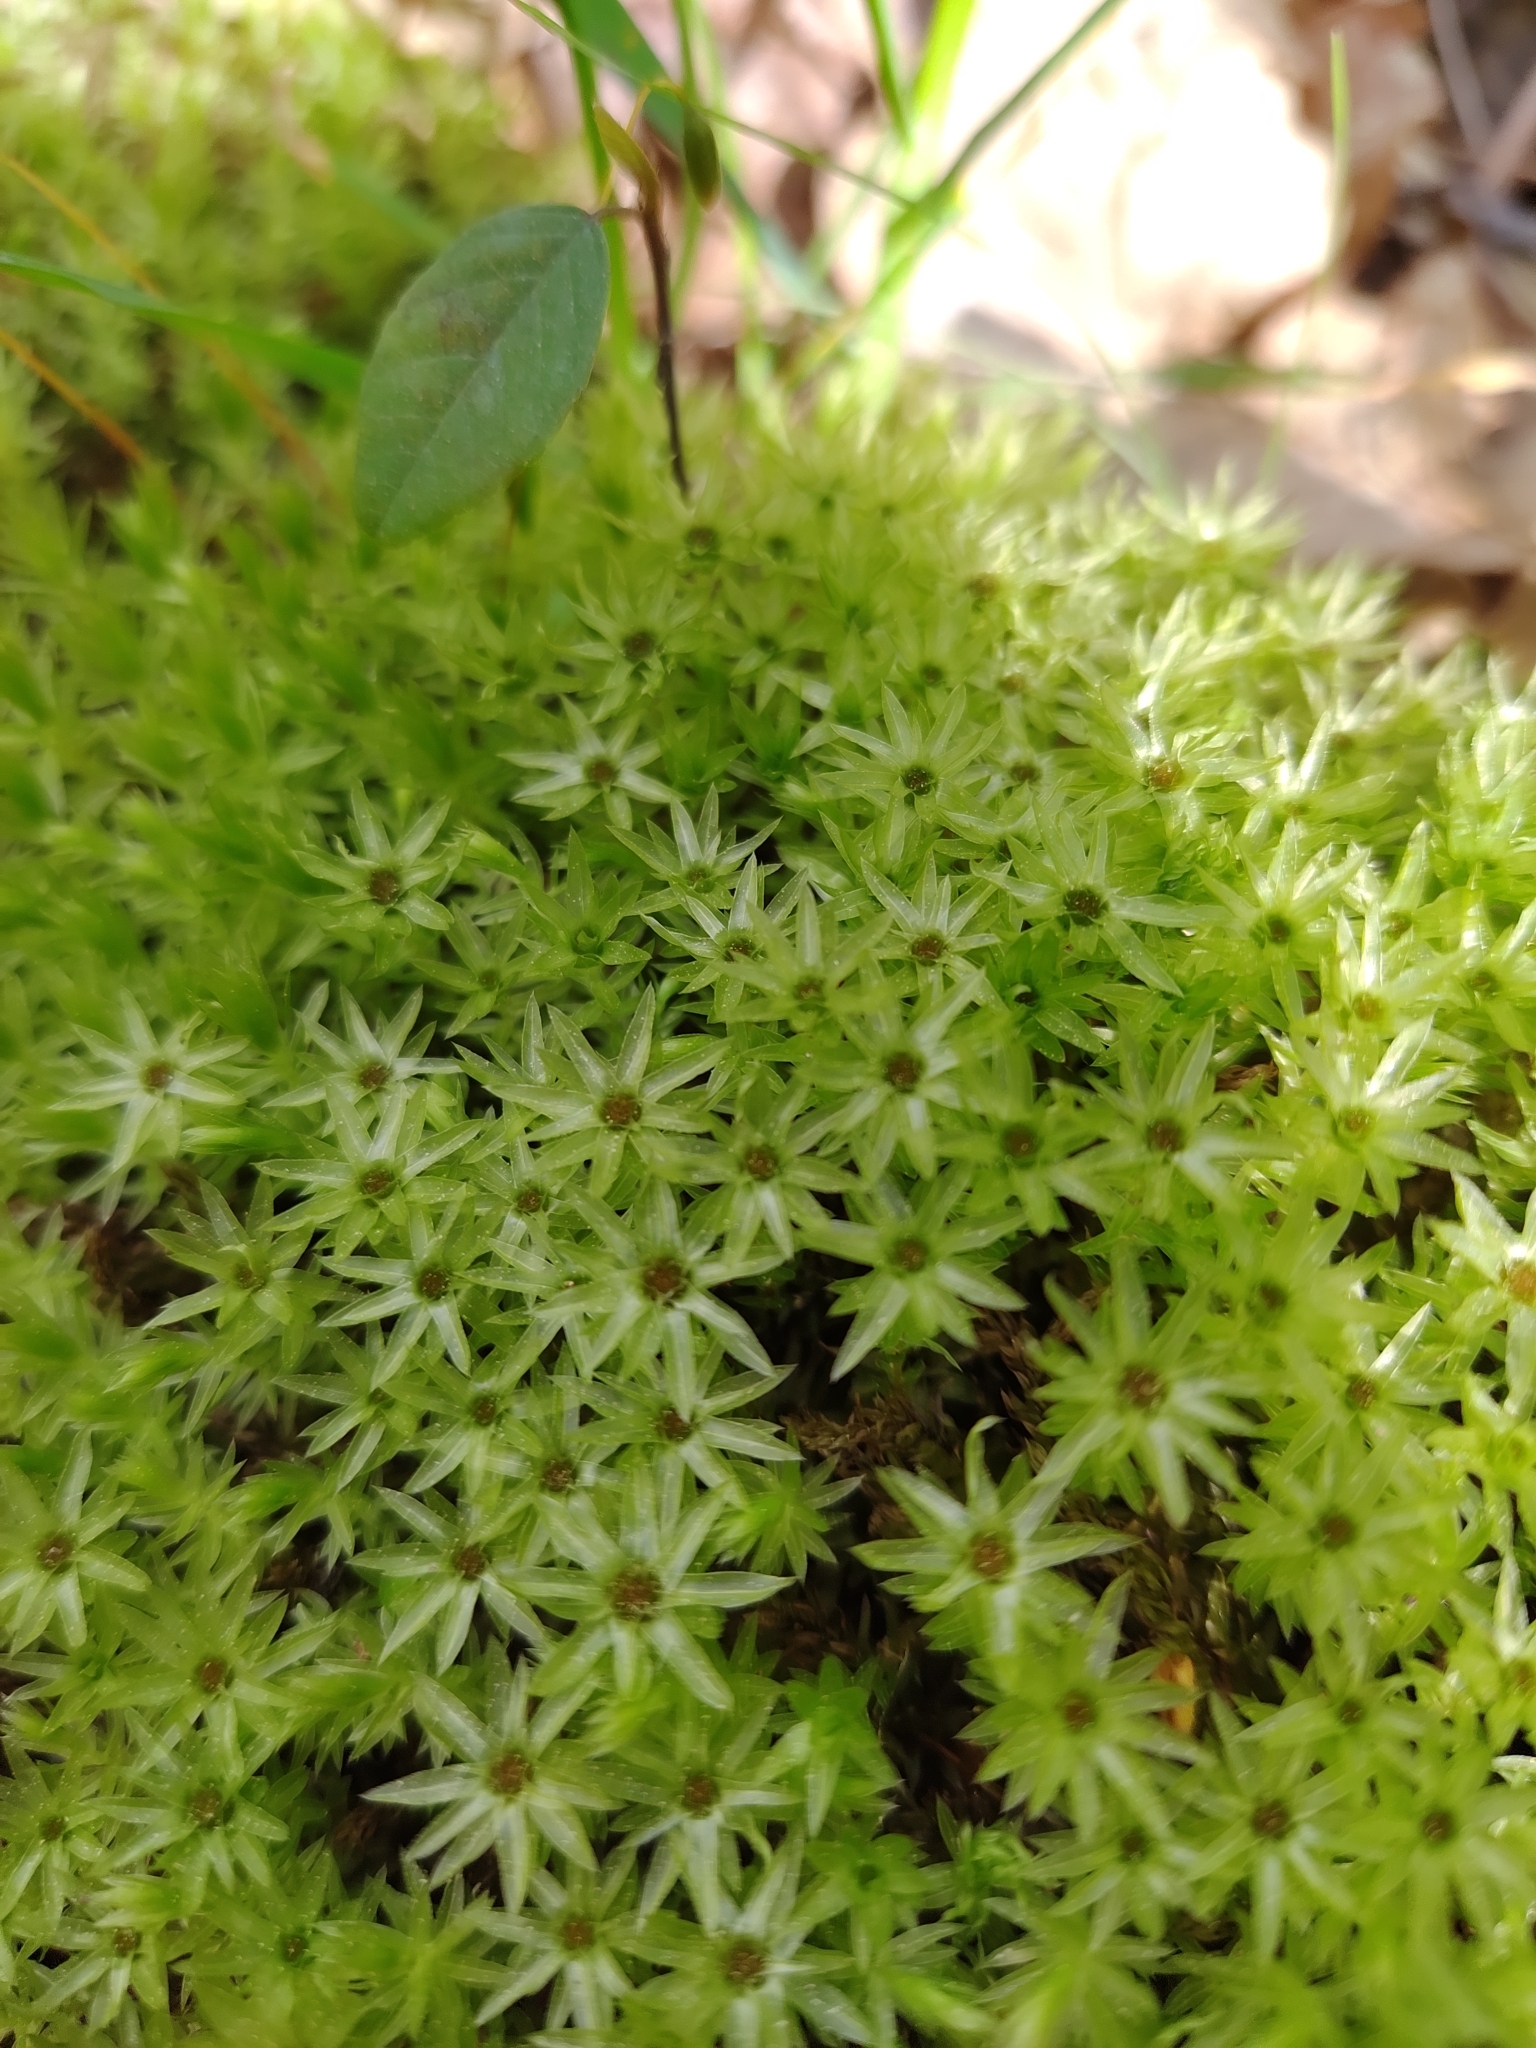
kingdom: Plantae
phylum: Bryophyta
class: Bryopsida
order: Bryales
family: Mniaceae
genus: Mnium
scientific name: Mnium hornum
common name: Swan's-neck leafy moss
